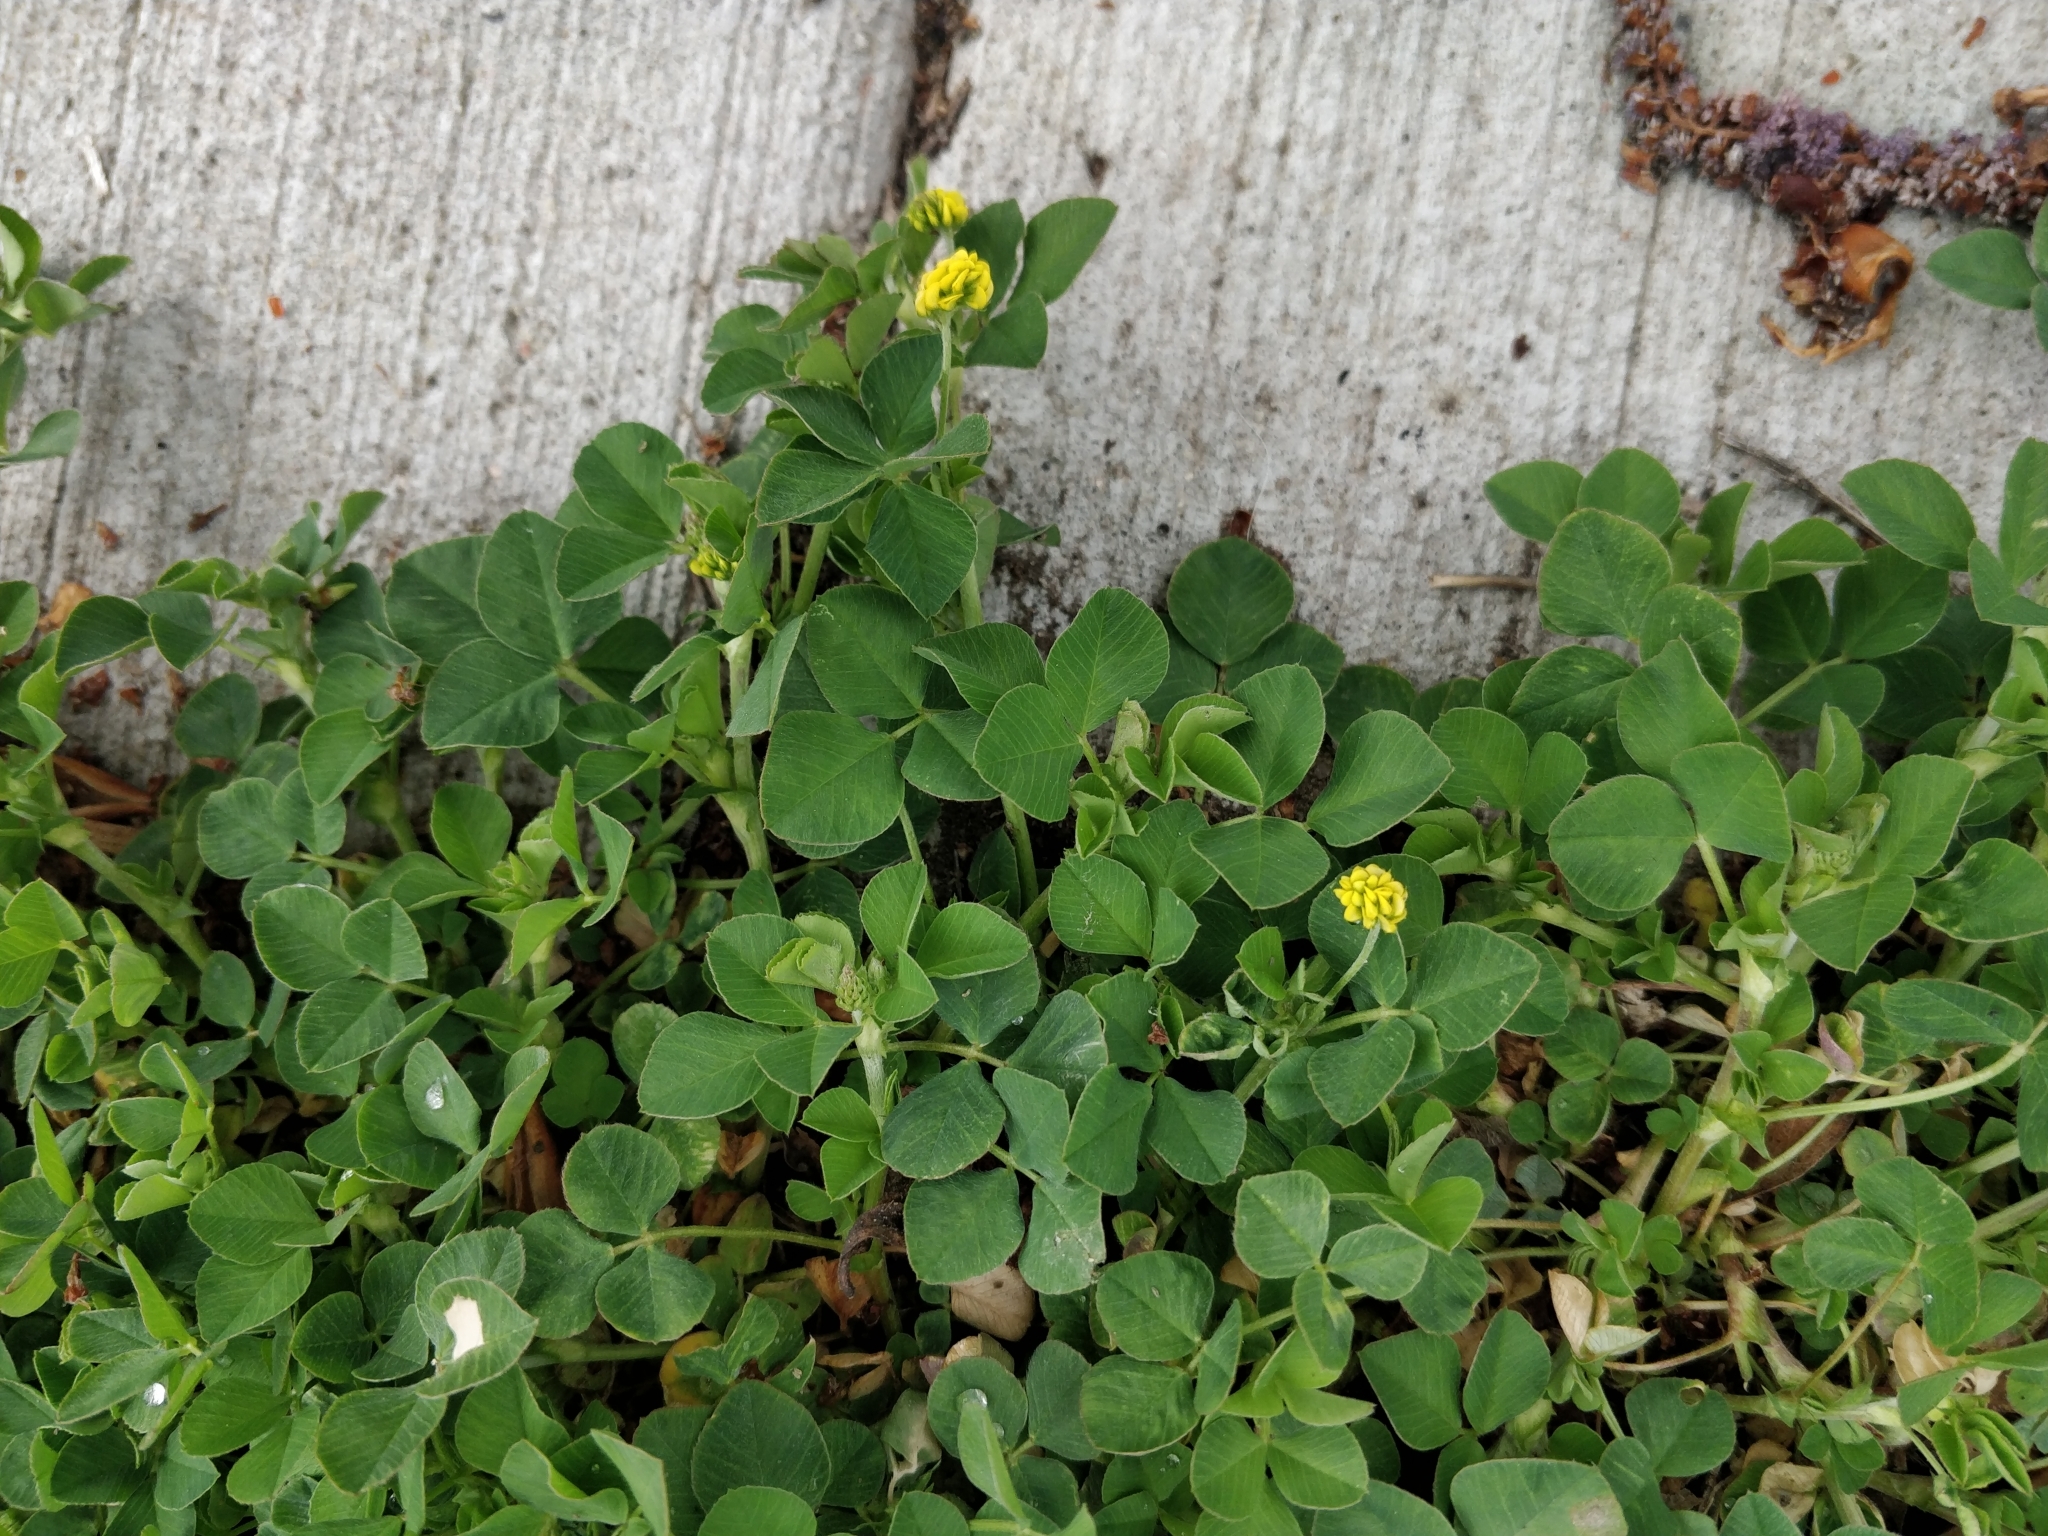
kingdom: Plantae
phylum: Tracheophyta
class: Magnoliopsida
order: Fabales
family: Fabaceae
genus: Medicago
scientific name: Medicago lupulina
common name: Black medick
